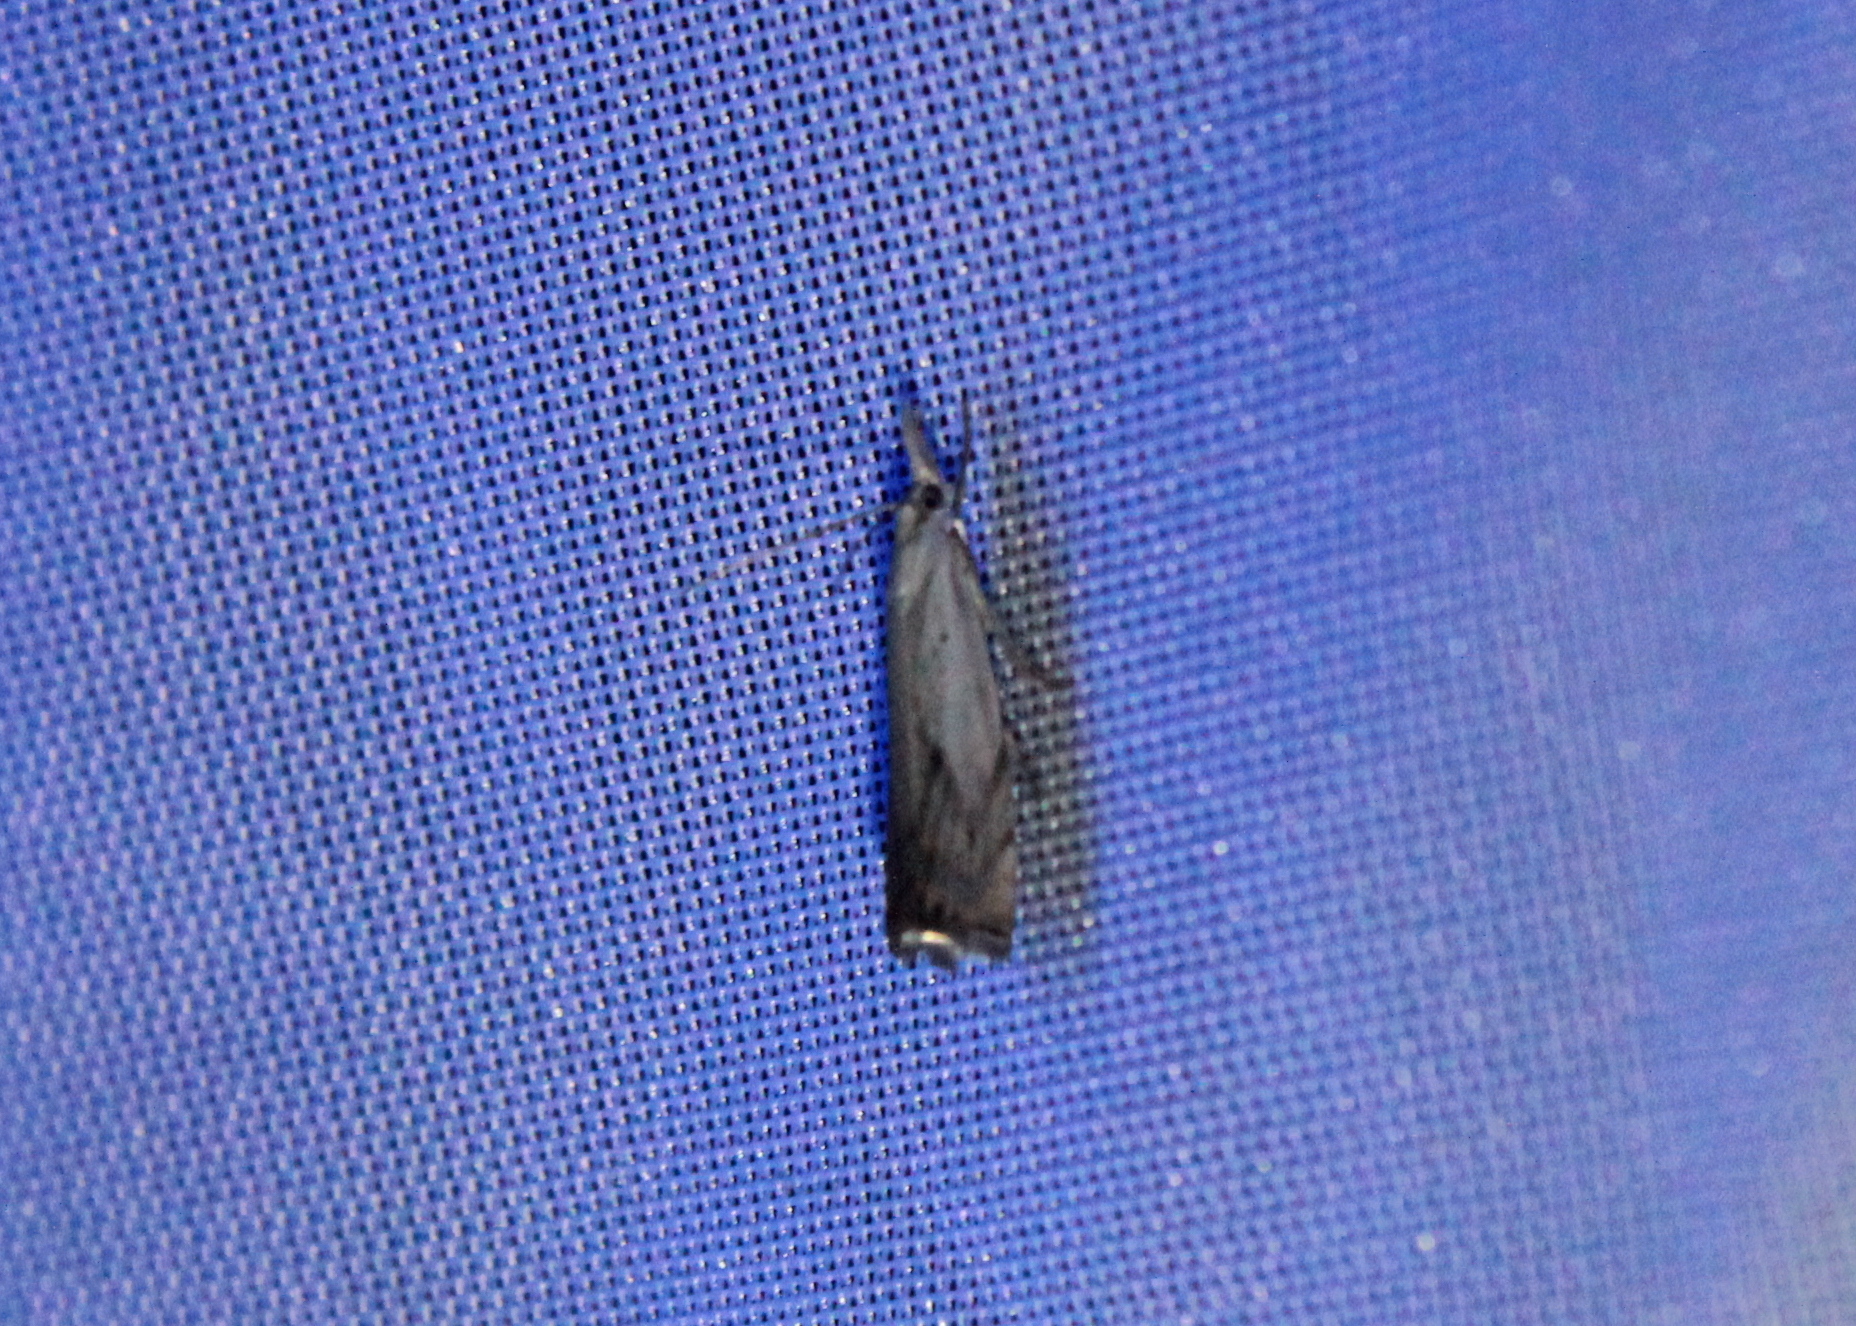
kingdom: Animalia
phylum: Arthropoda
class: Insecta
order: Lepidoptera
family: Crambidae
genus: Crambus
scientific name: Crambus albellus
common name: Small white grass-veneer
